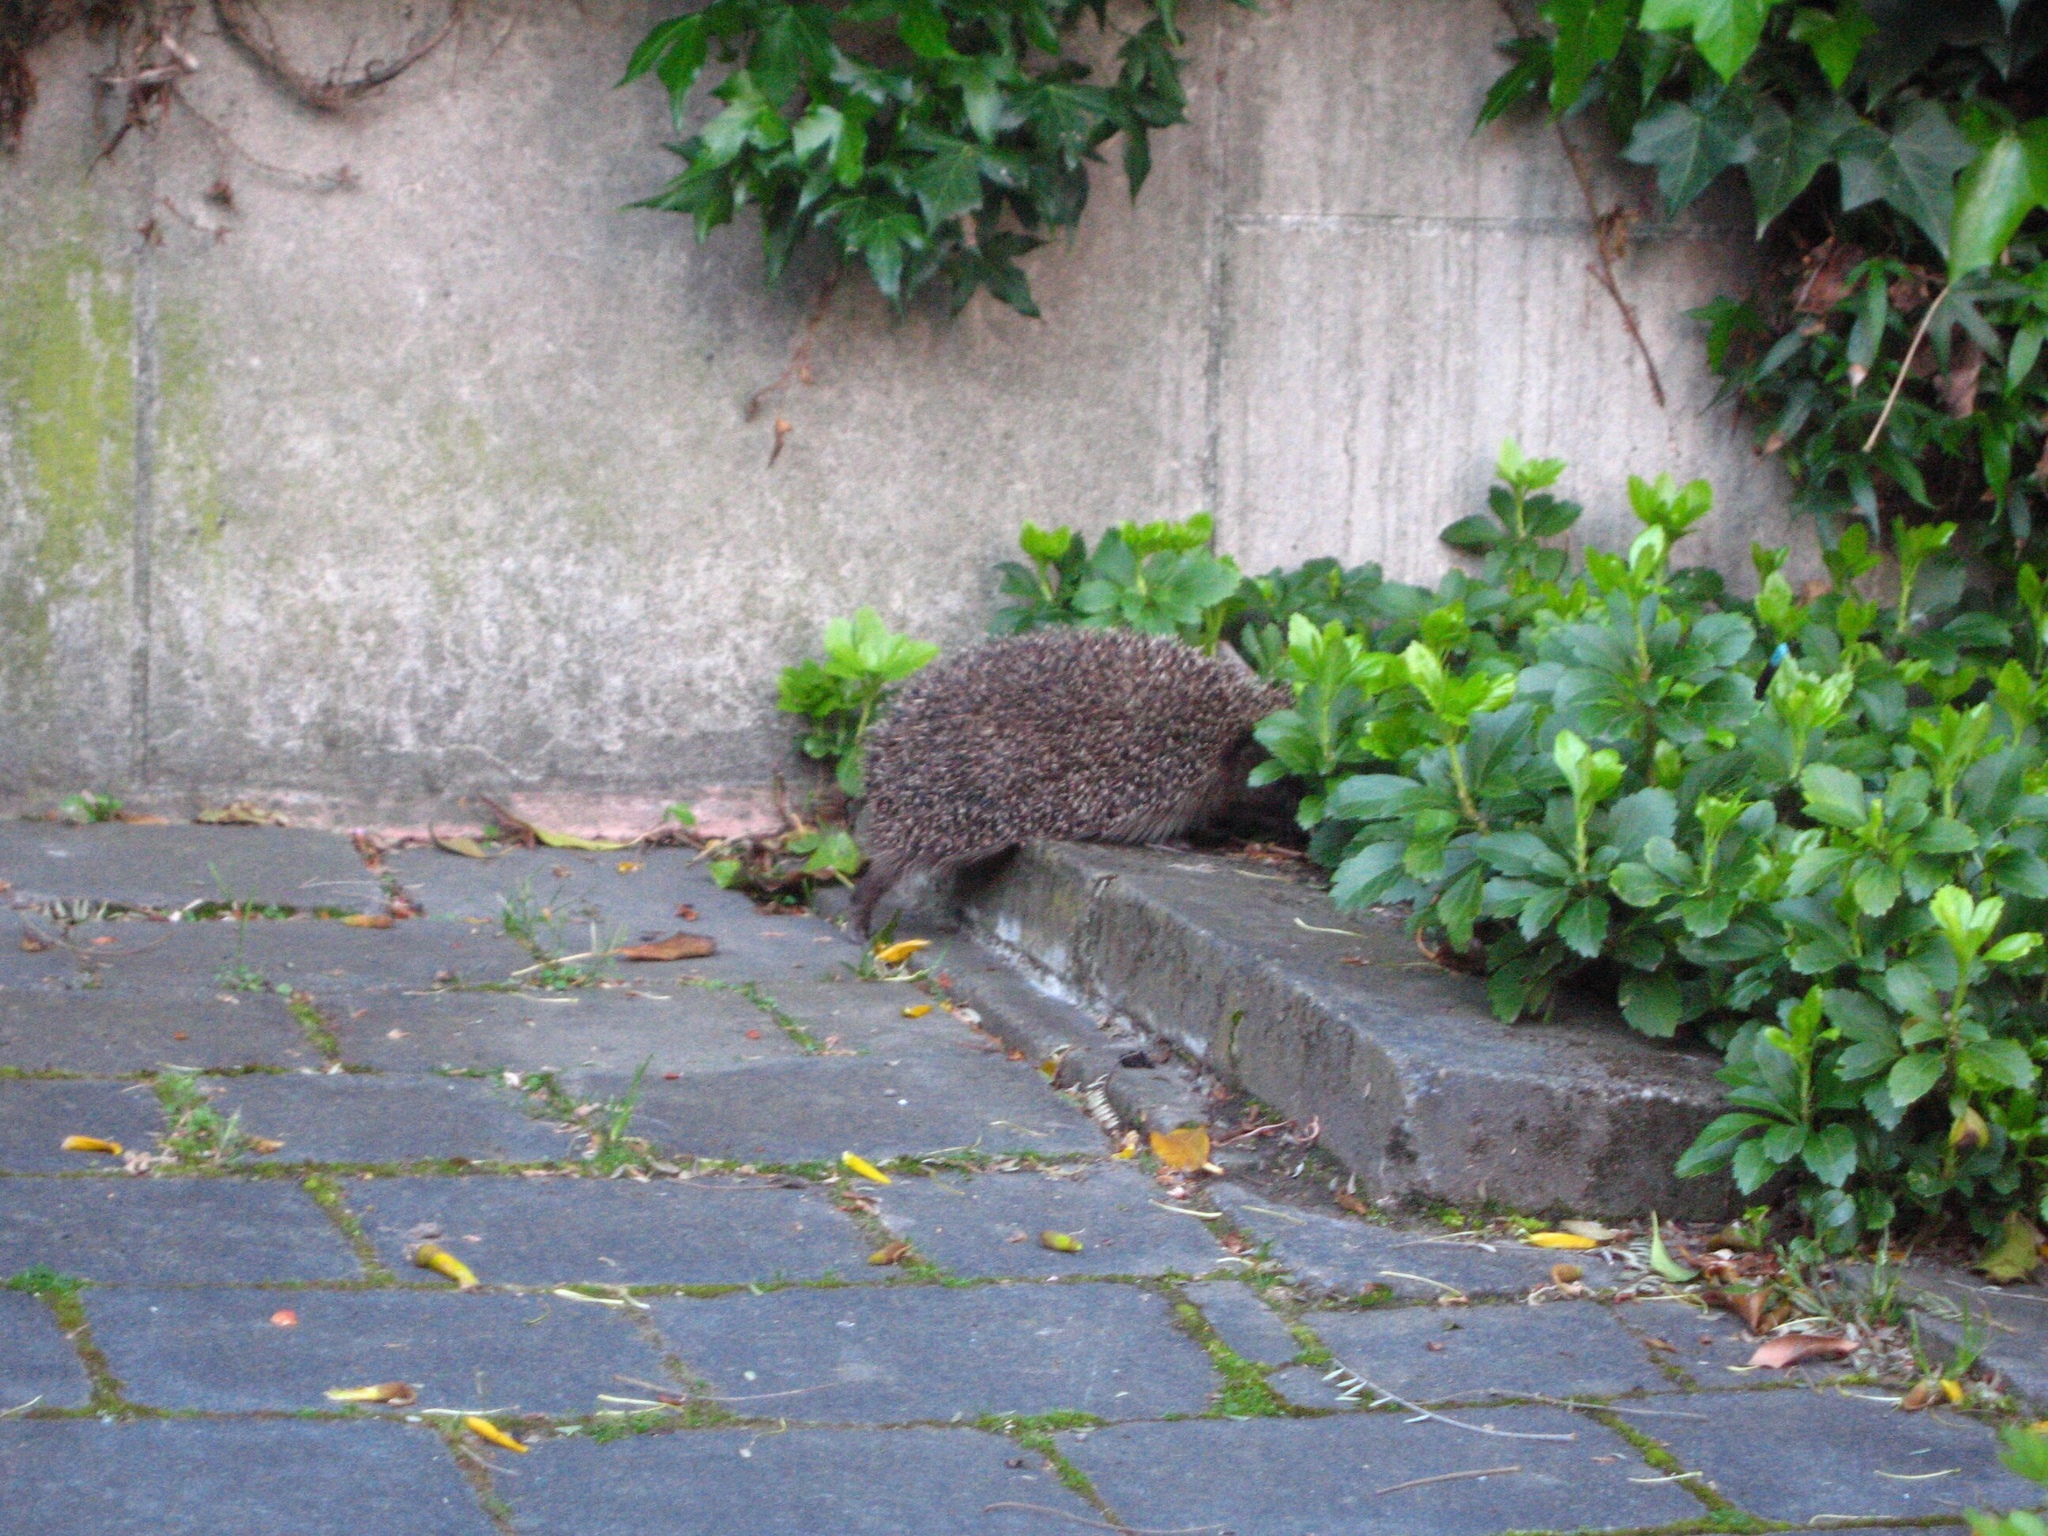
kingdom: Animalia
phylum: Chordata
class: Mammalia
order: Erinaceomorpha
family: Erinaceidae
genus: Erinaceus
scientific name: Erinaceus europaeus
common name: West european hedgehog
